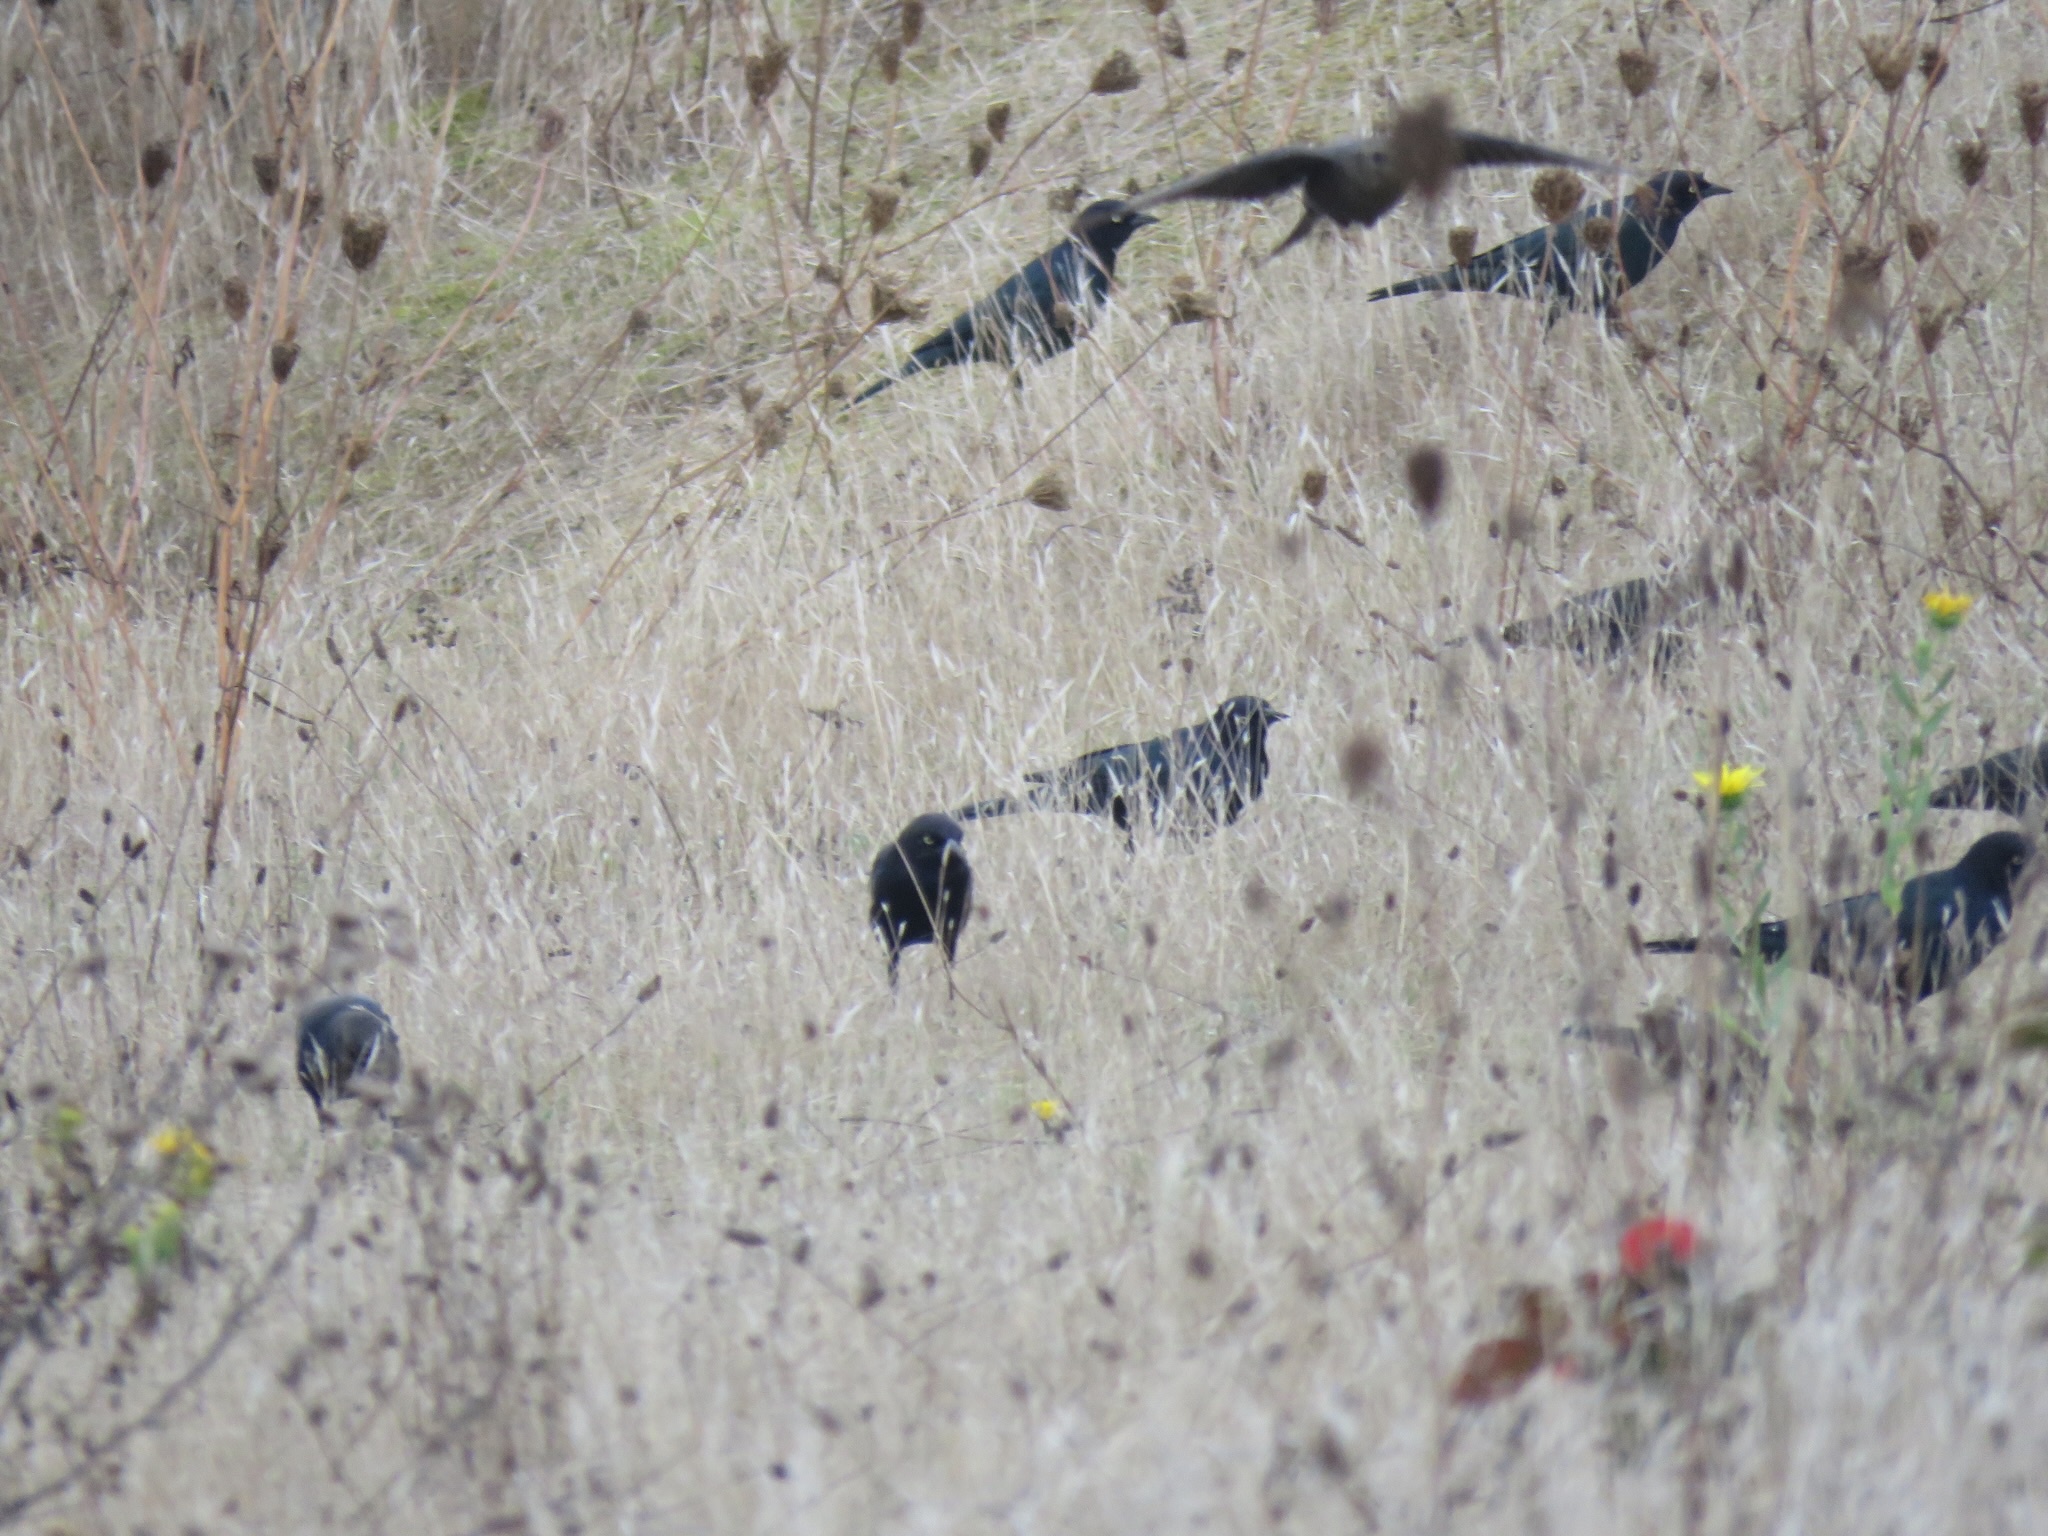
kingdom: Animalia
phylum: Chordata
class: Aves
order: Passeriformes
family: Icteridae
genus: Euphagus
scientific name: Euphagus cyanocephalus
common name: Brewer's blackbird
